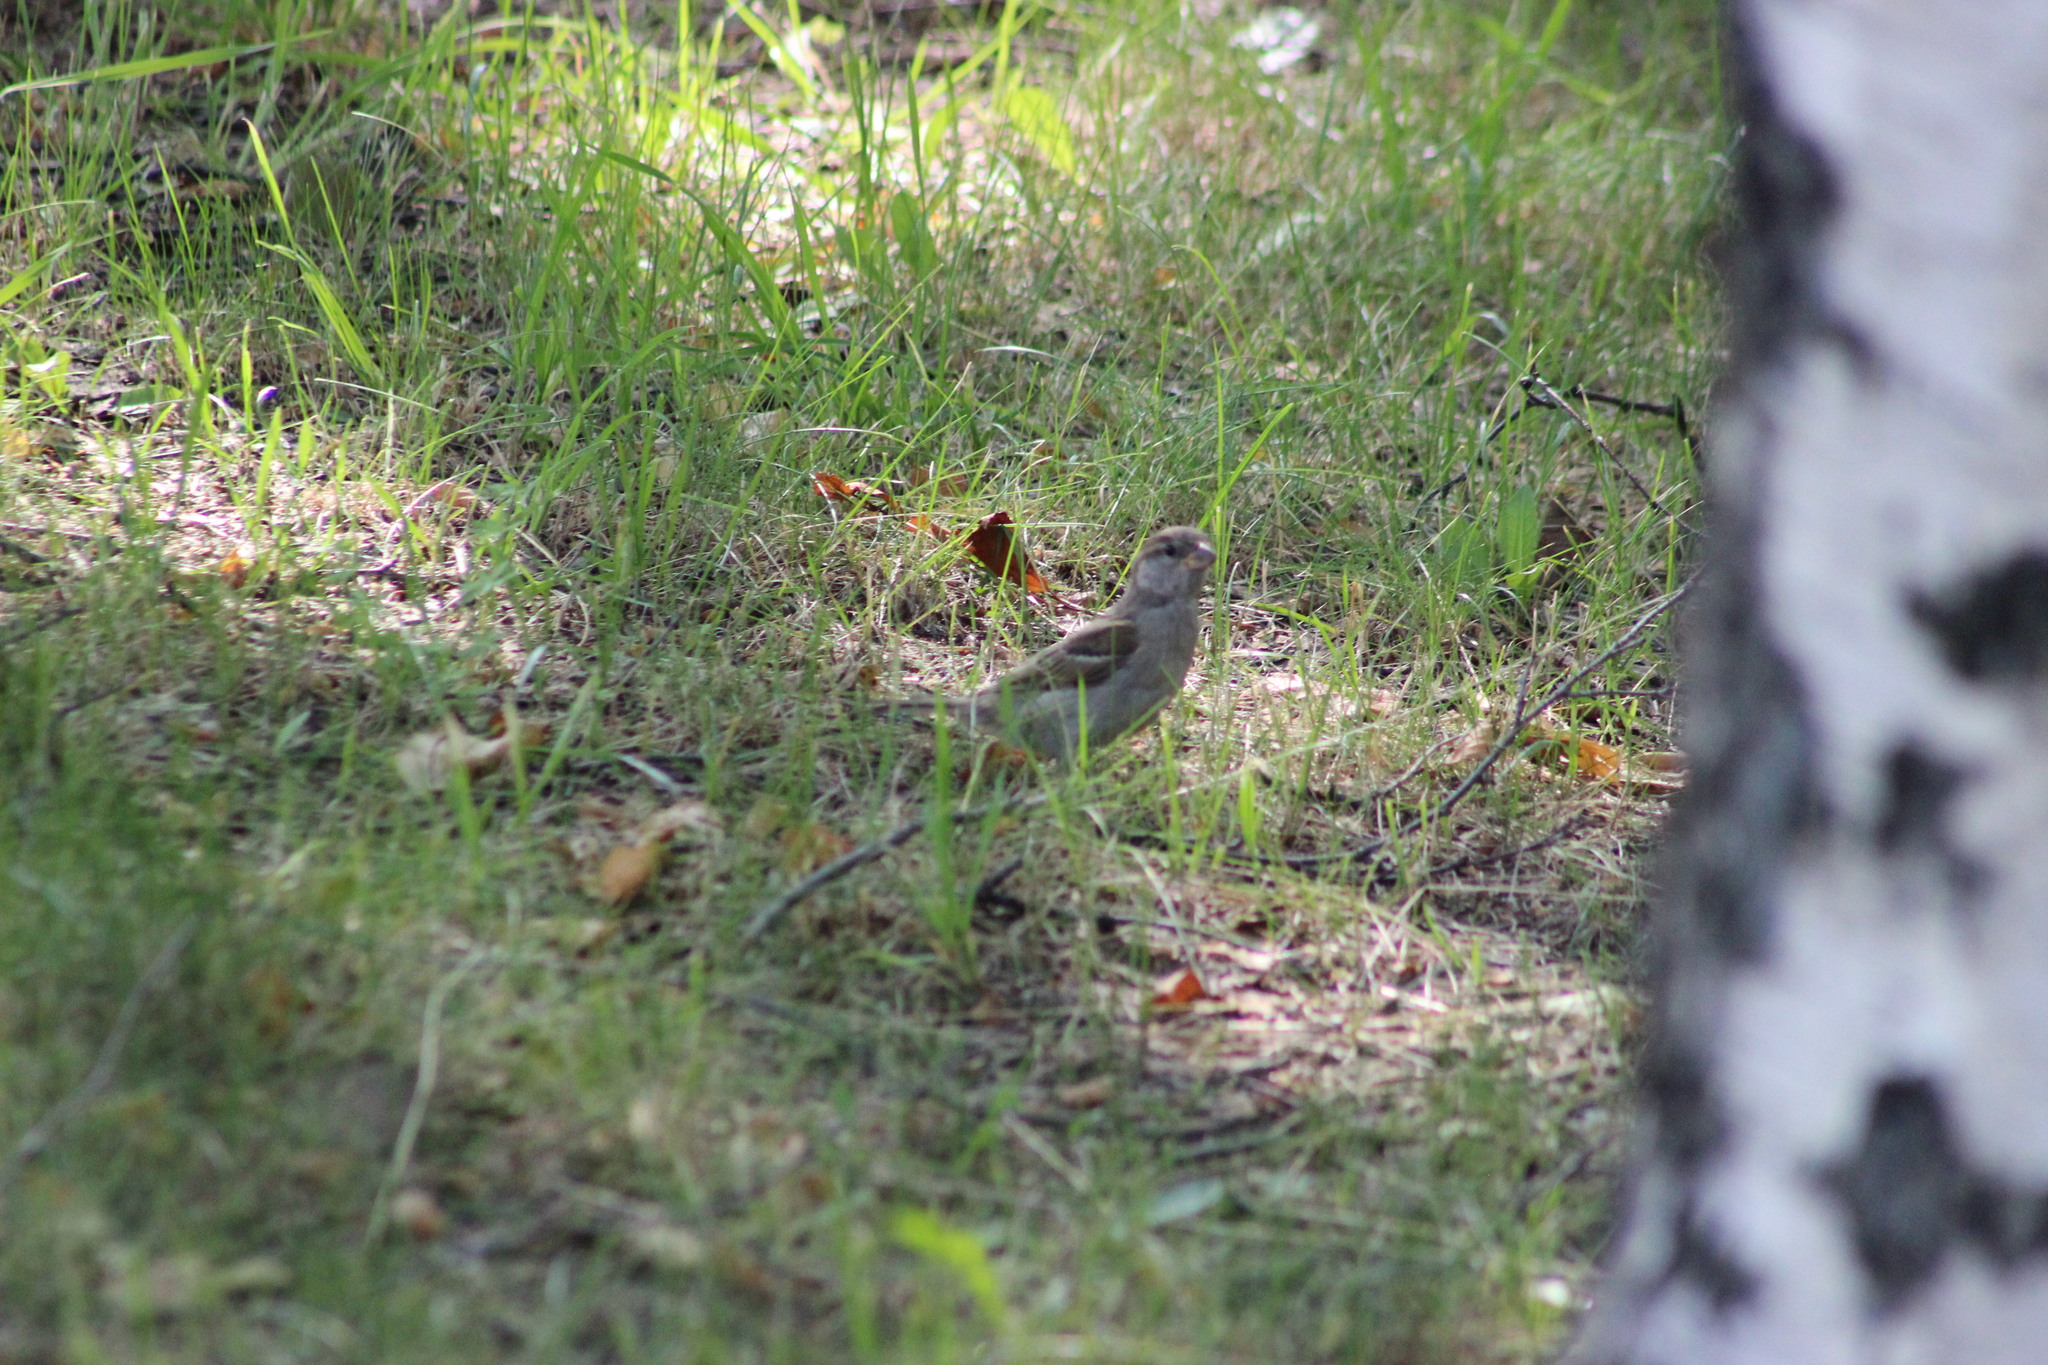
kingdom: Animalia
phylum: Chordata
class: Aves
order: Passeriformes
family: Passeridae
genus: Passer
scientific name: Passer domesticus
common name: House sparrow
